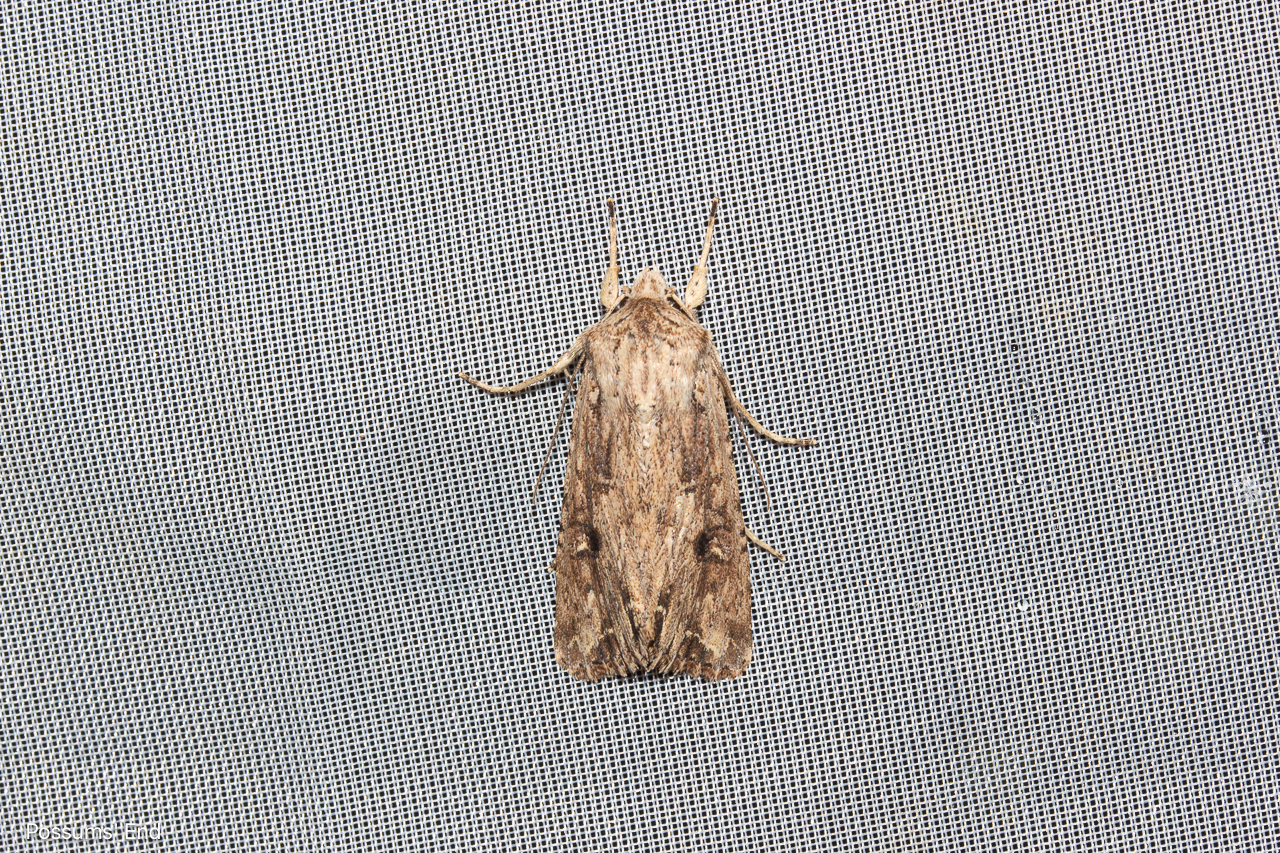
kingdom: Animalia
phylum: Arthropoda
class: Insecta
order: Lepidoptera
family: Noctuidae
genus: Ichneutica
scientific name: Ichneutica lignana
